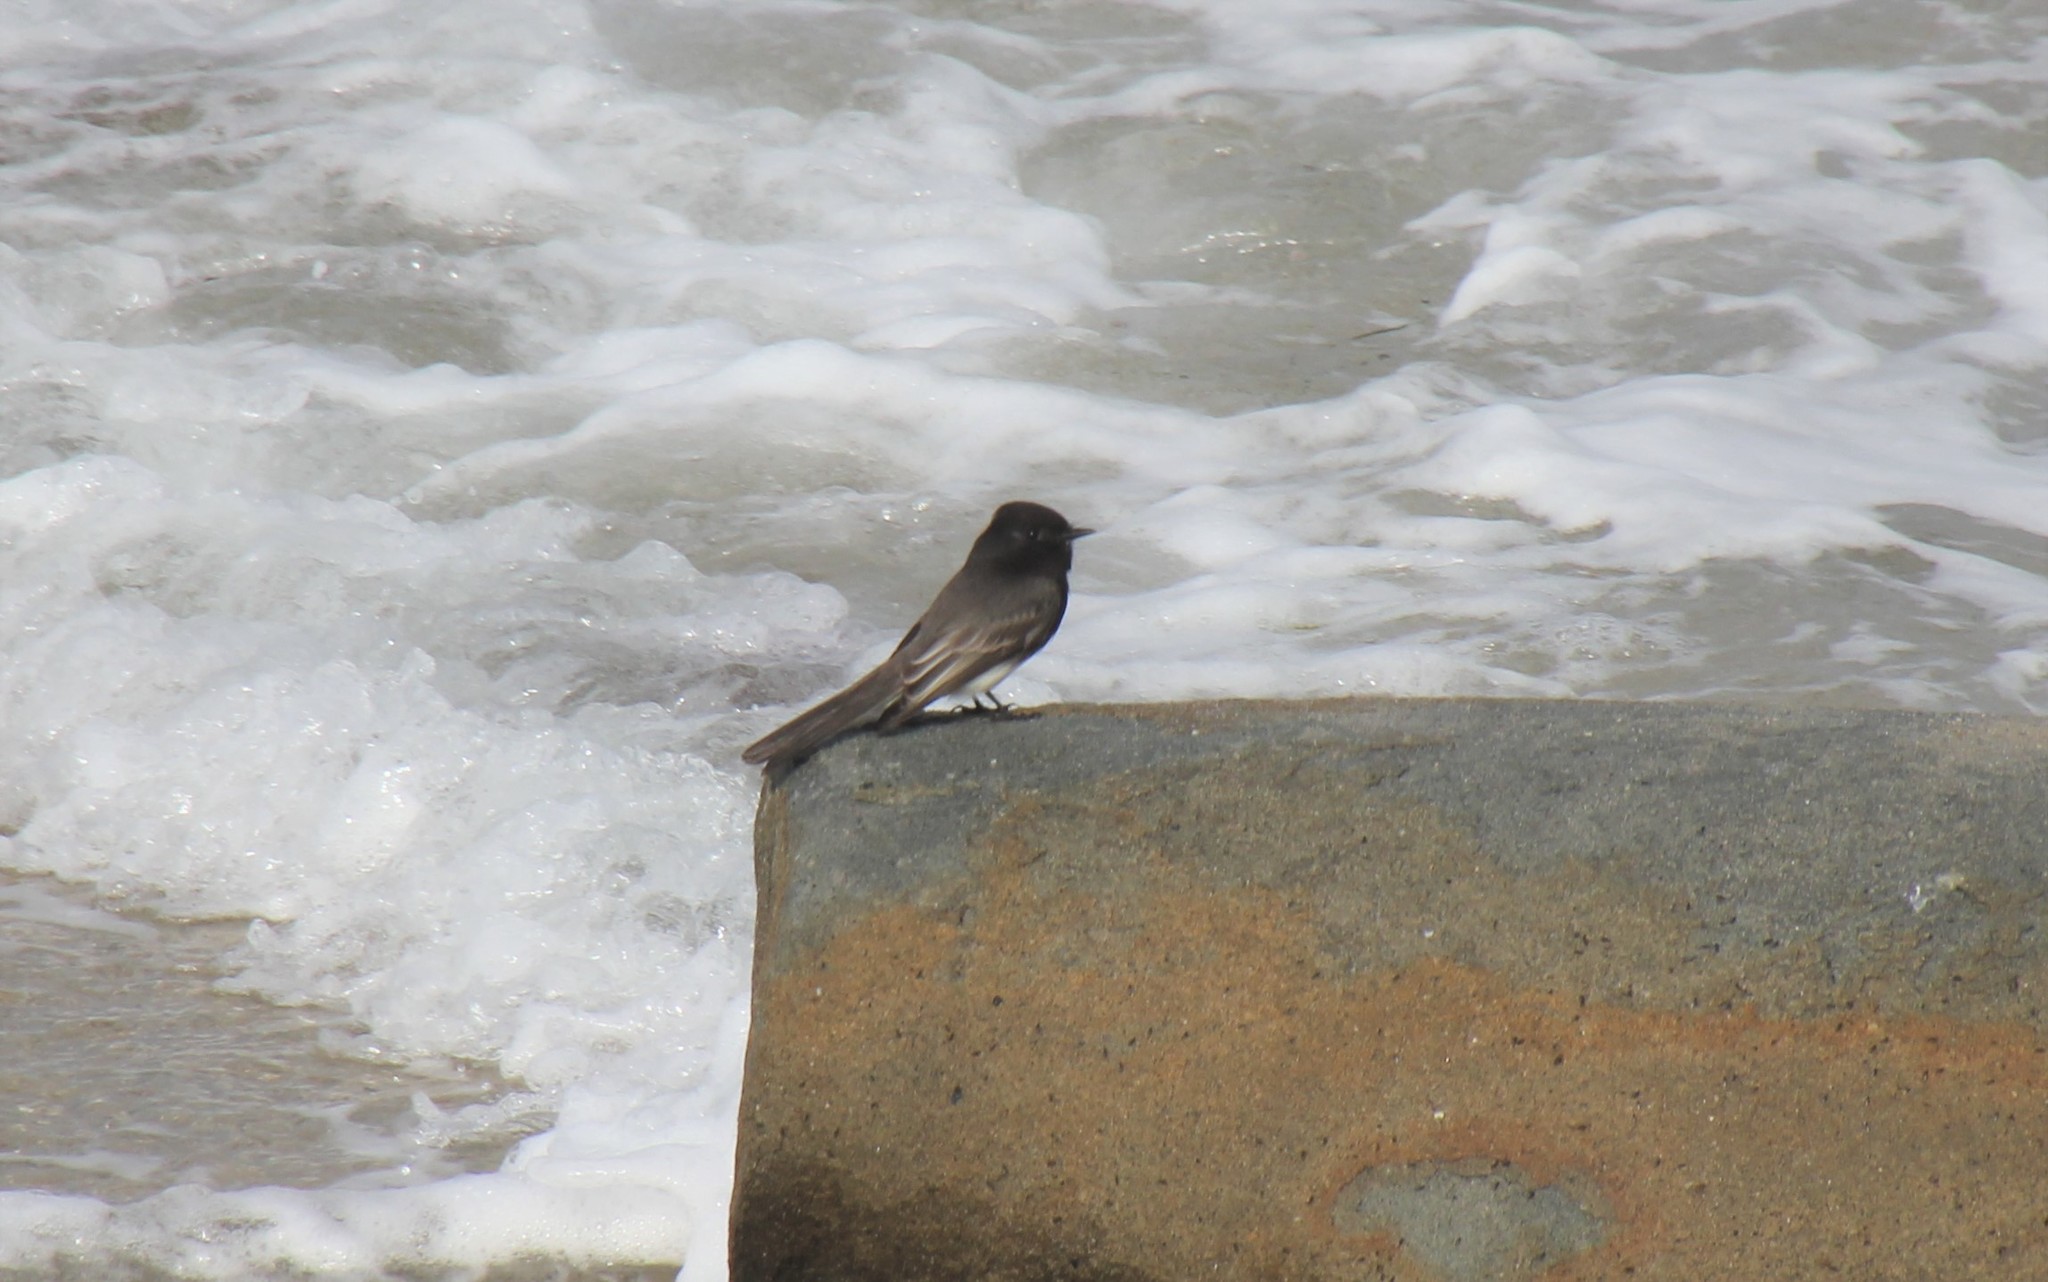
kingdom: Animalia
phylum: Chordata
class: Aves
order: Passeriformes
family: Tyrannidae
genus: Sayornis
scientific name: Sayornis nigricans
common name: Black phoebe
